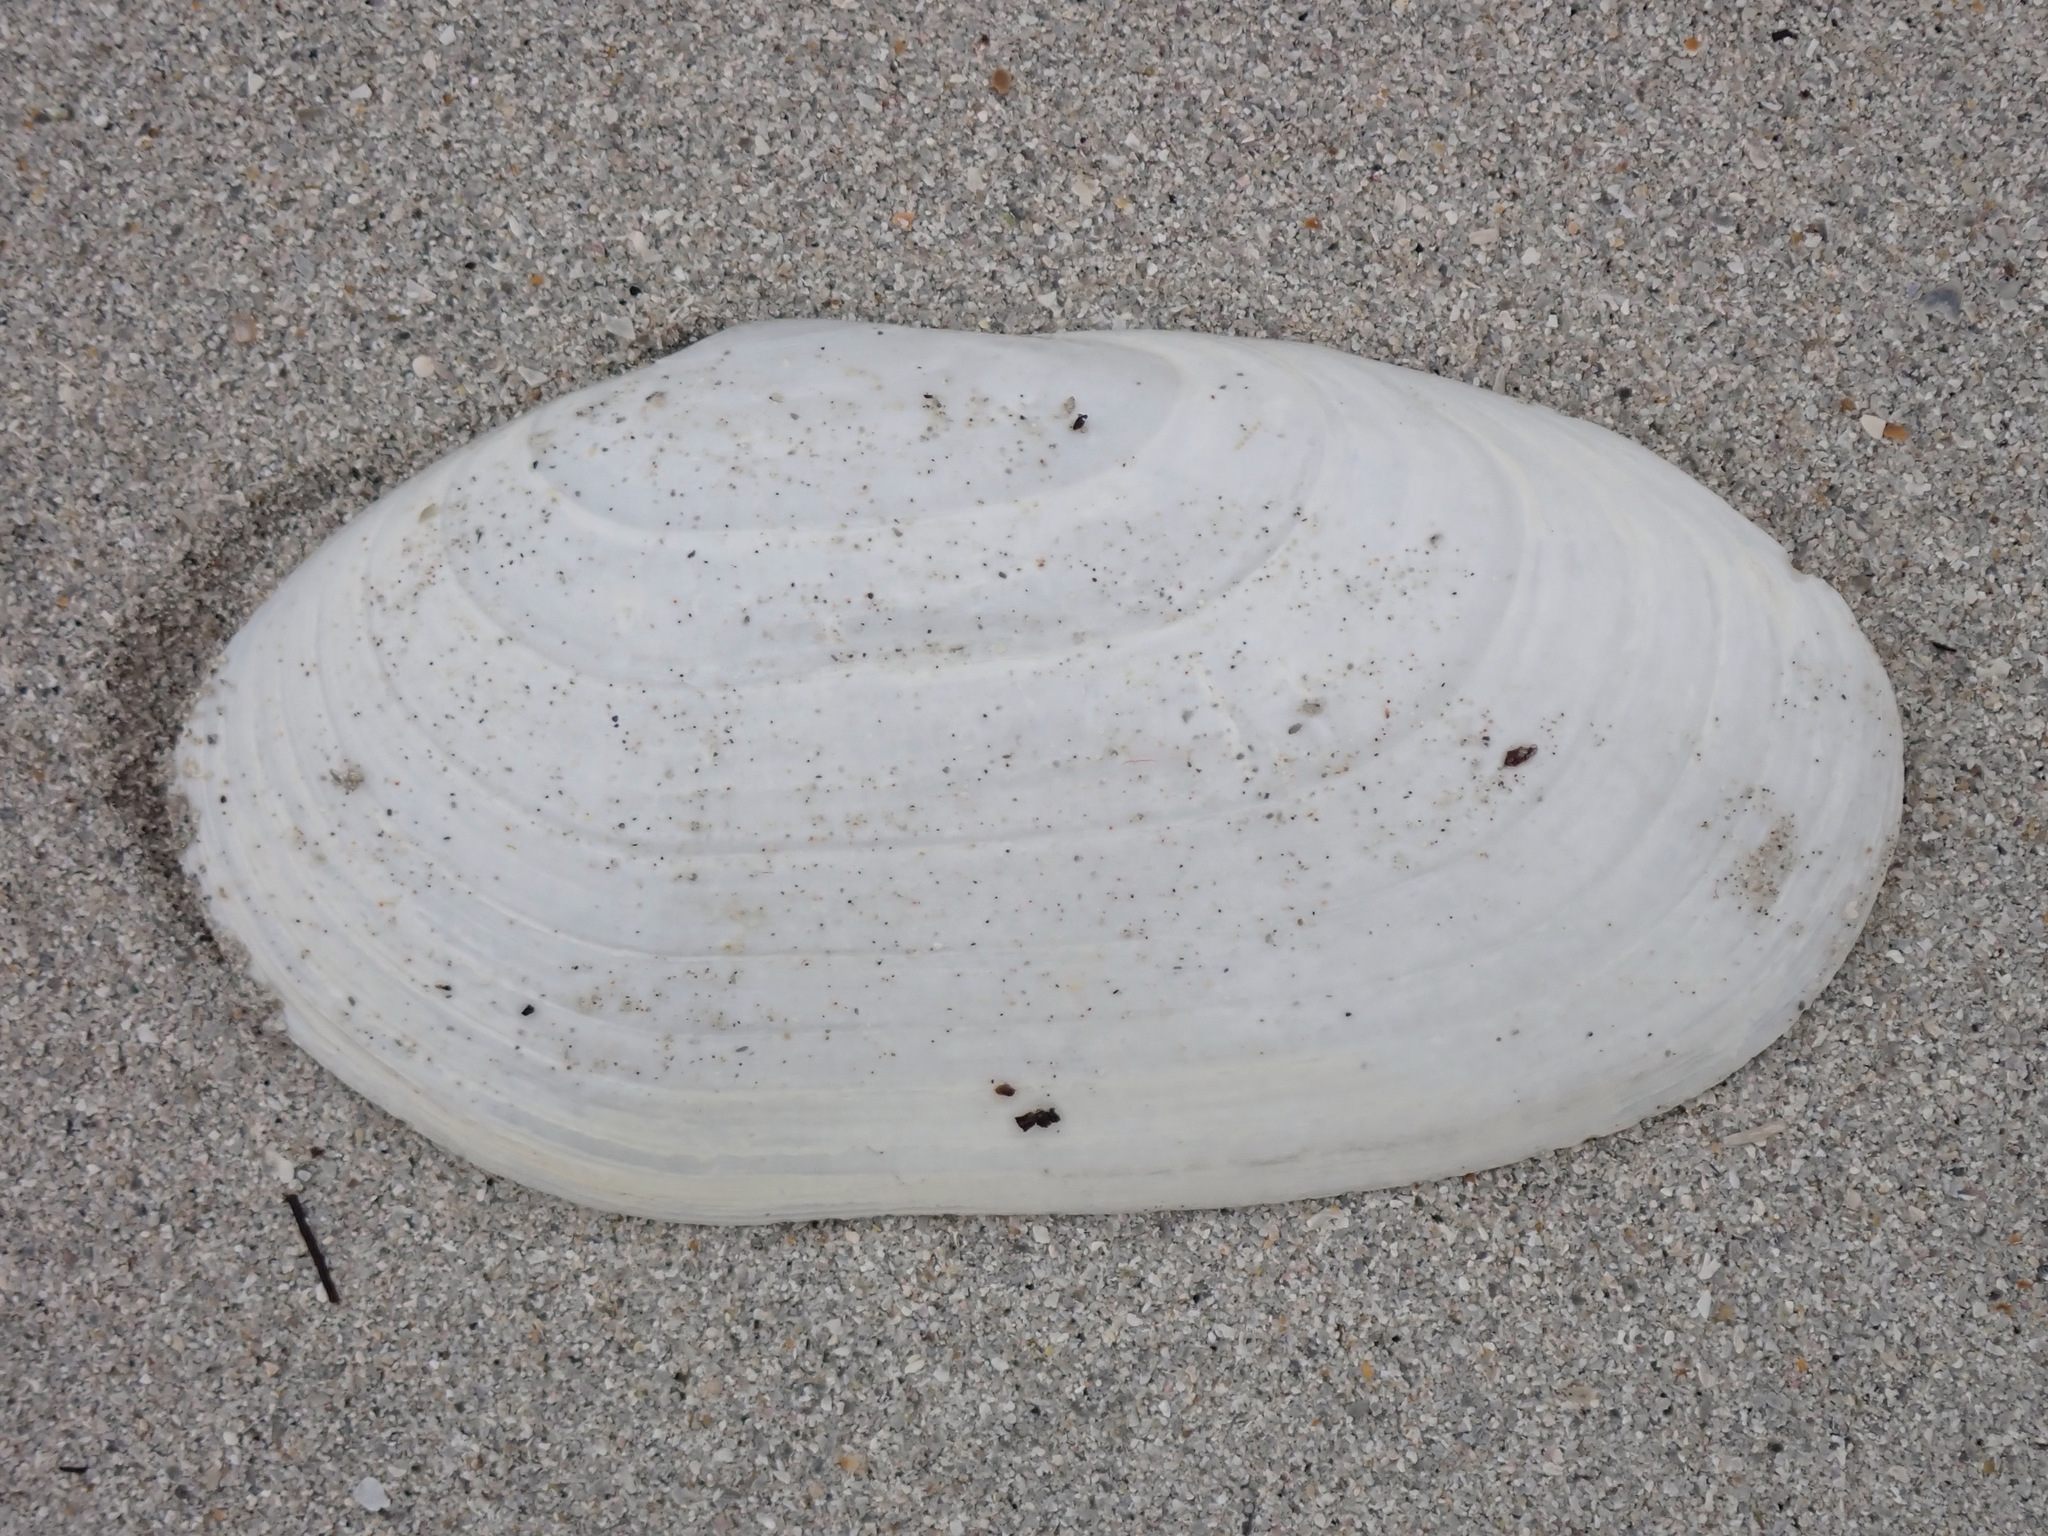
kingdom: Animalia
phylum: Mollusca
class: Bivalvia
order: Venerida
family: Mactridae
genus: Lutraria
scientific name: Lutraria lutraria
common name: Common otter shell
